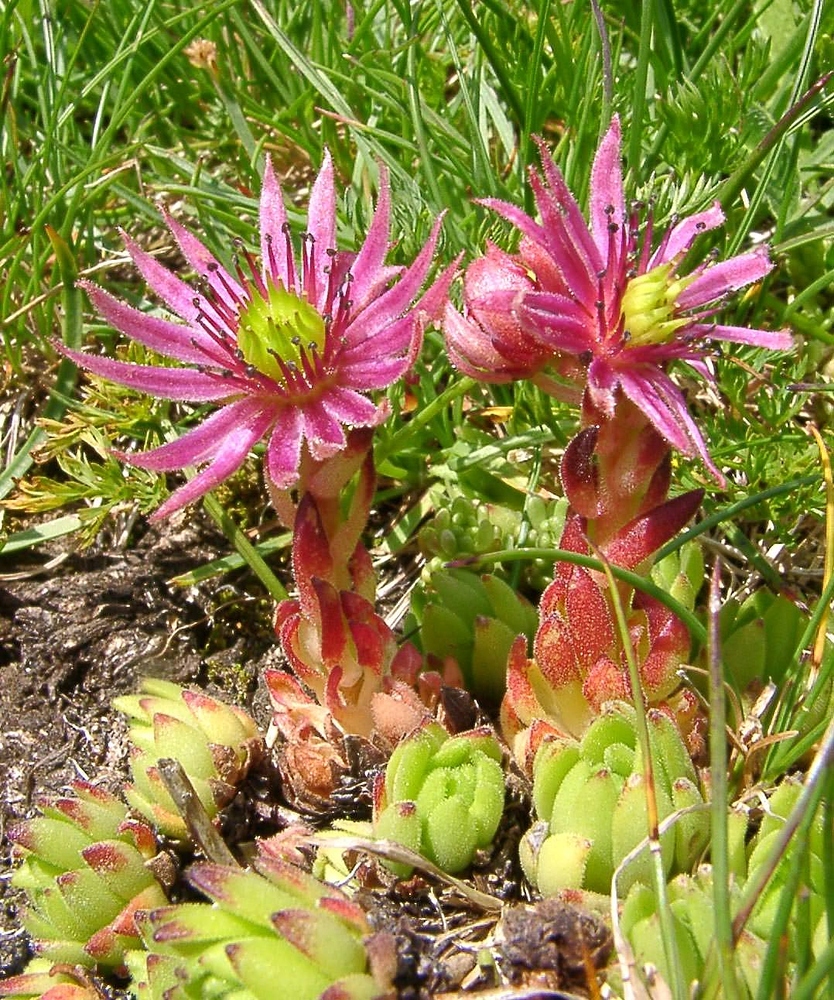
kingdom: Plantae
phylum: Tracheophyta
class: Magnoliopsida
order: Saxifragales
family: Crassulaceae
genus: Sempervivum
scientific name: Sempervivum montanum
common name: Mountain house-leek
